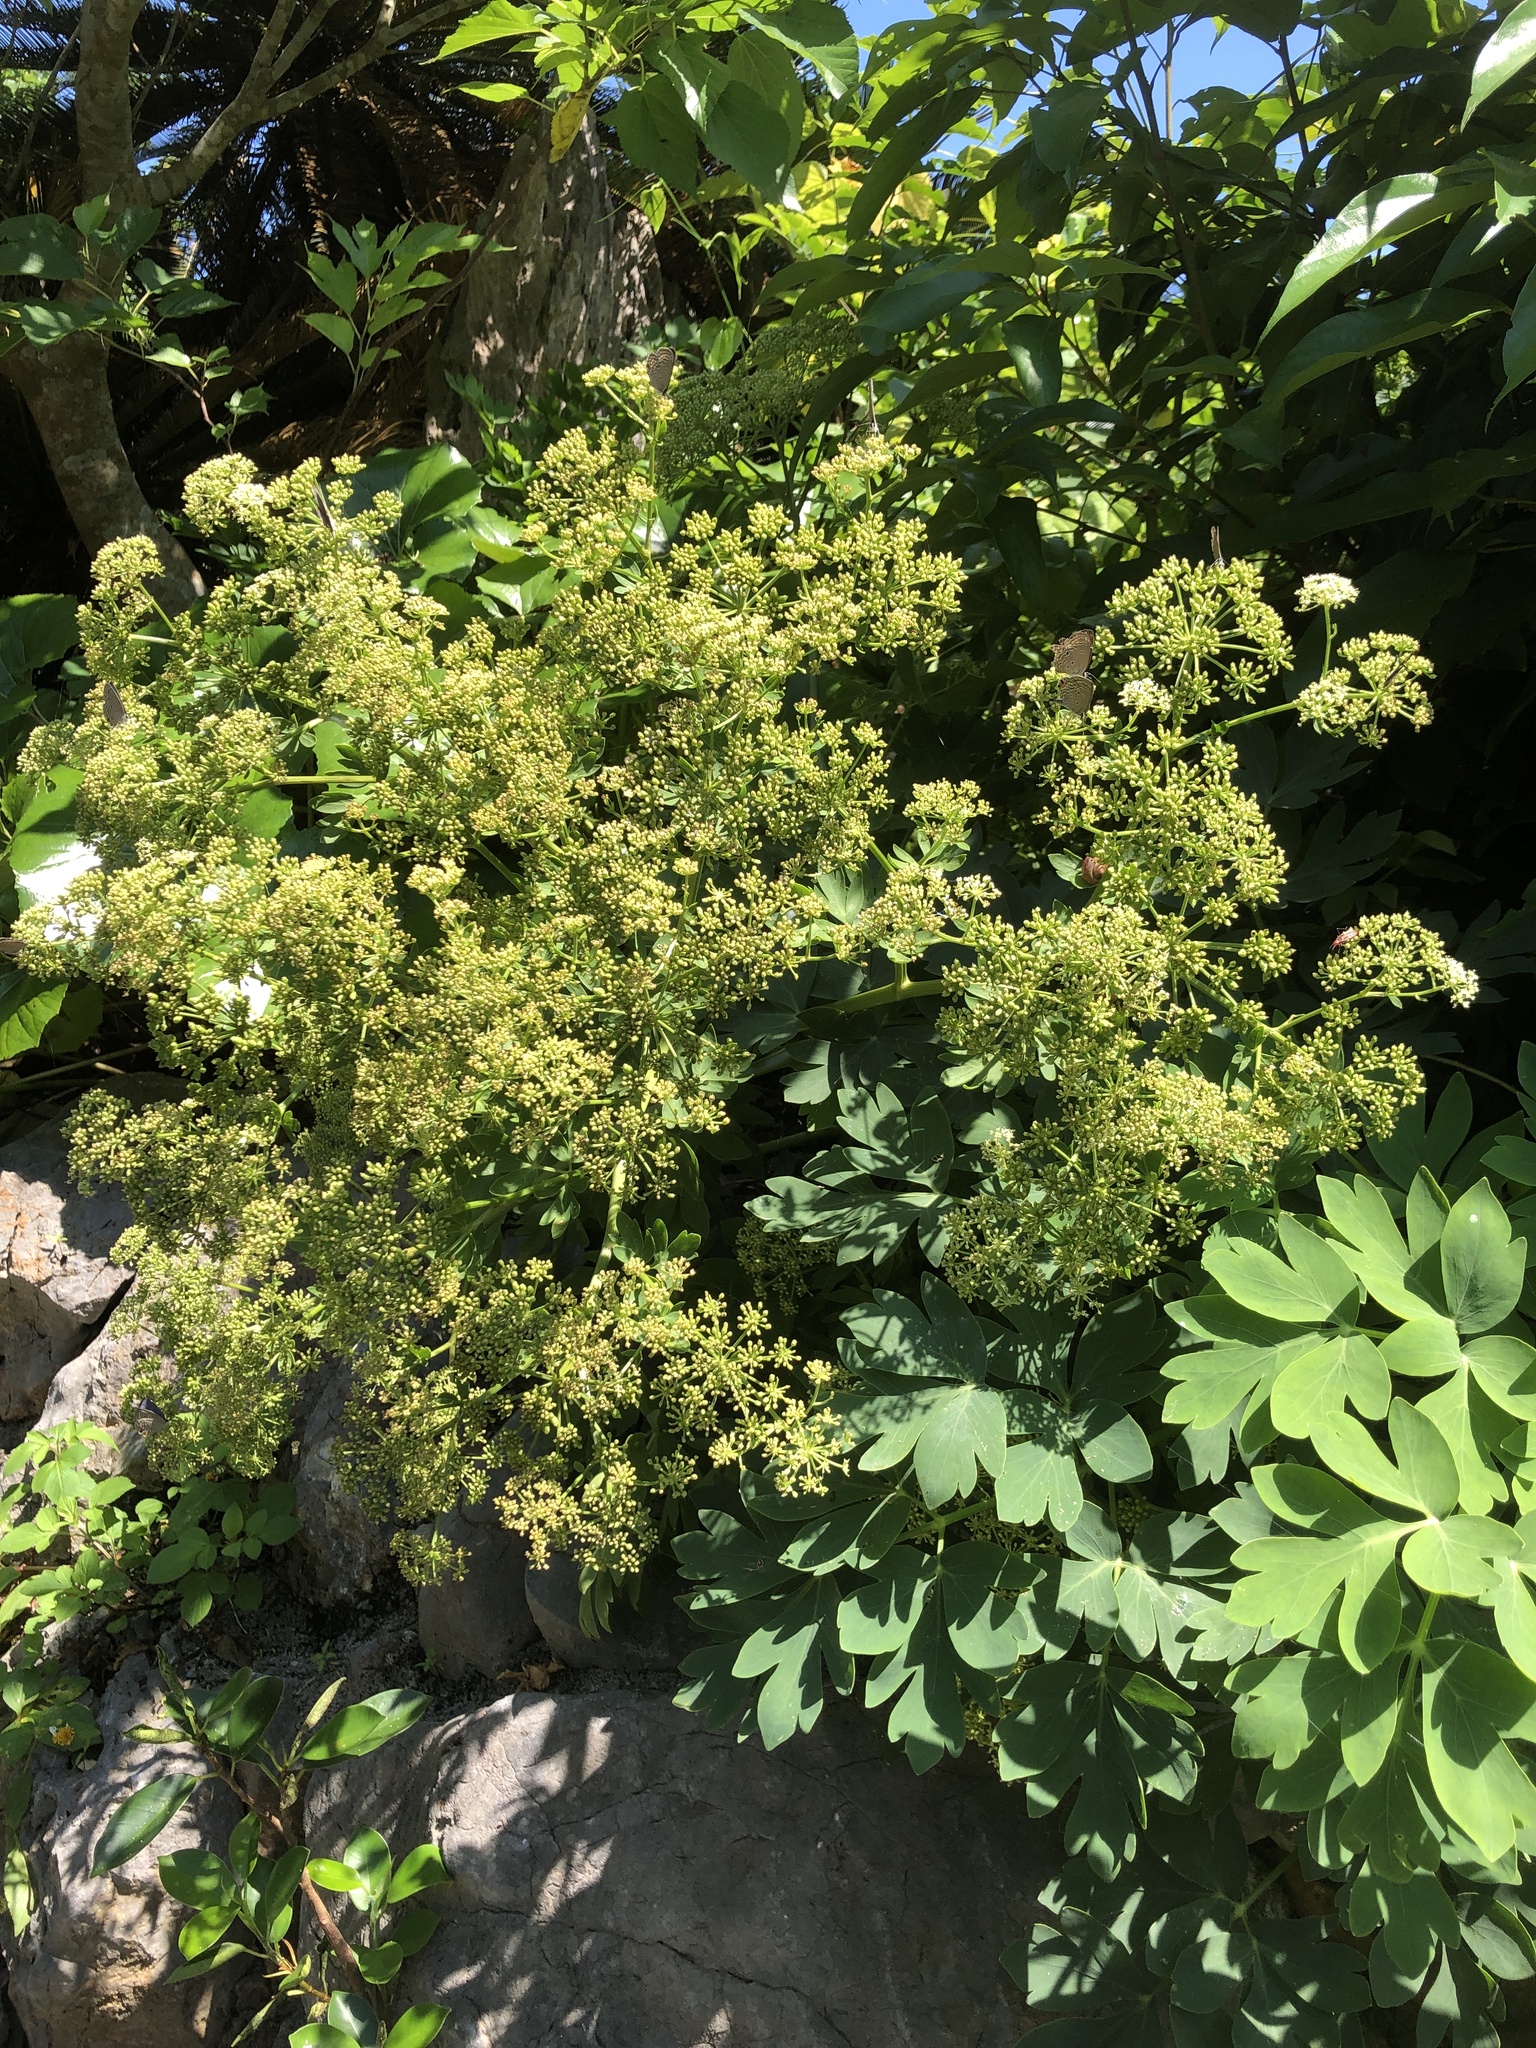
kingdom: Plantae
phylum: Tracheophyta
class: Magnoliopsida
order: Apiales
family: Apiaceae
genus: Peucedanum
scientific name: Peucedanum japonicum
